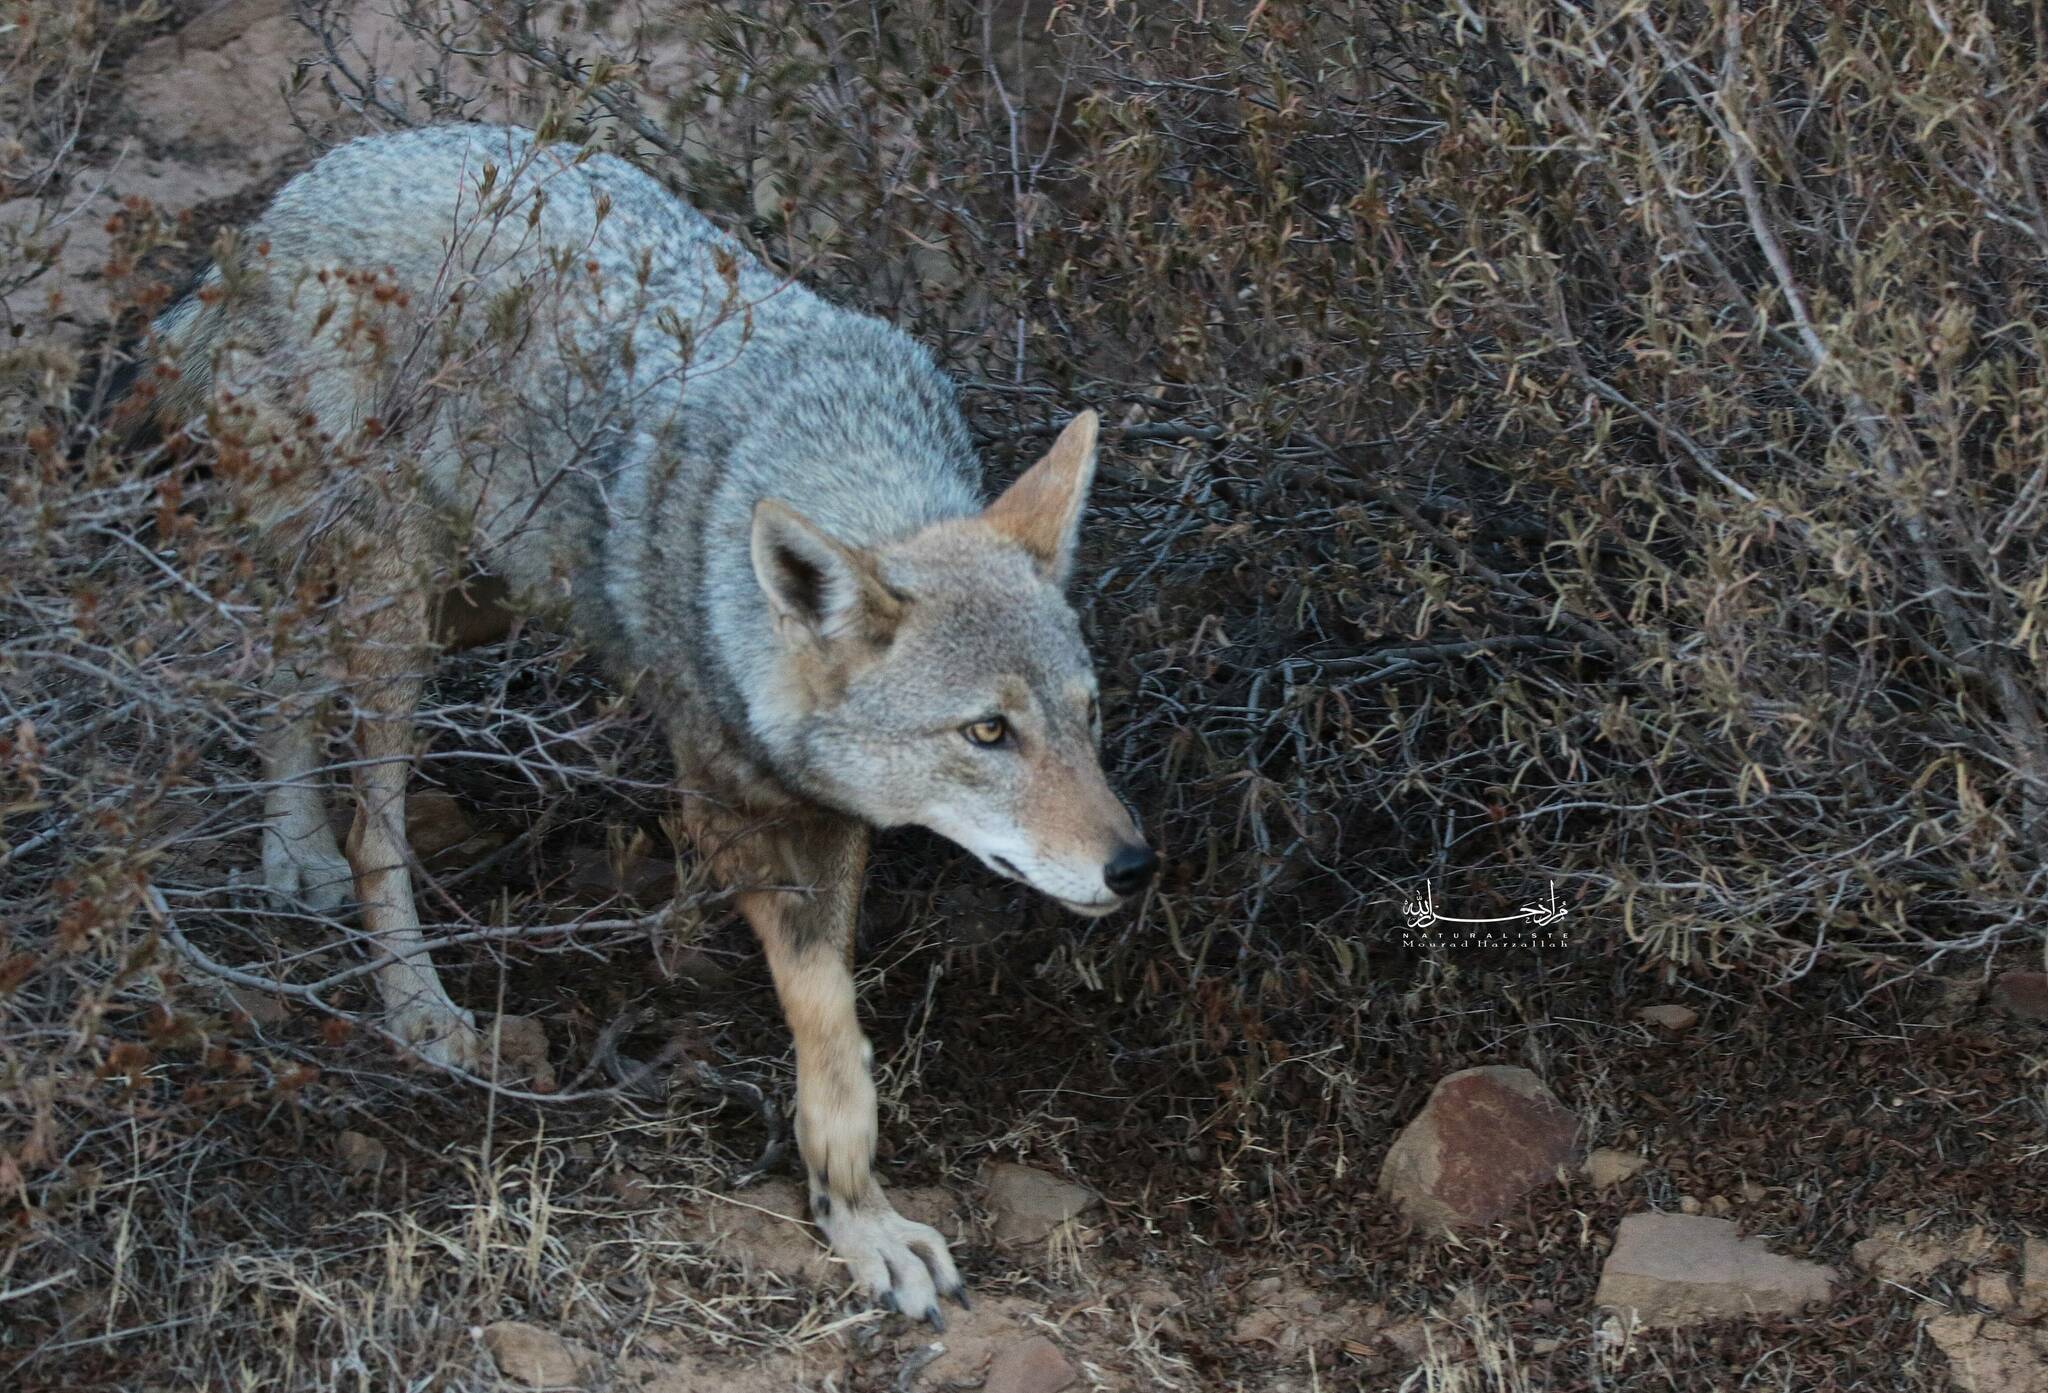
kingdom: Animalia
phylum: Chordata
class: Mammalia
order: Carnivora
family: Canidae
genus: Canis
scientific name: Canis lupaster
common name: African golden wolf
